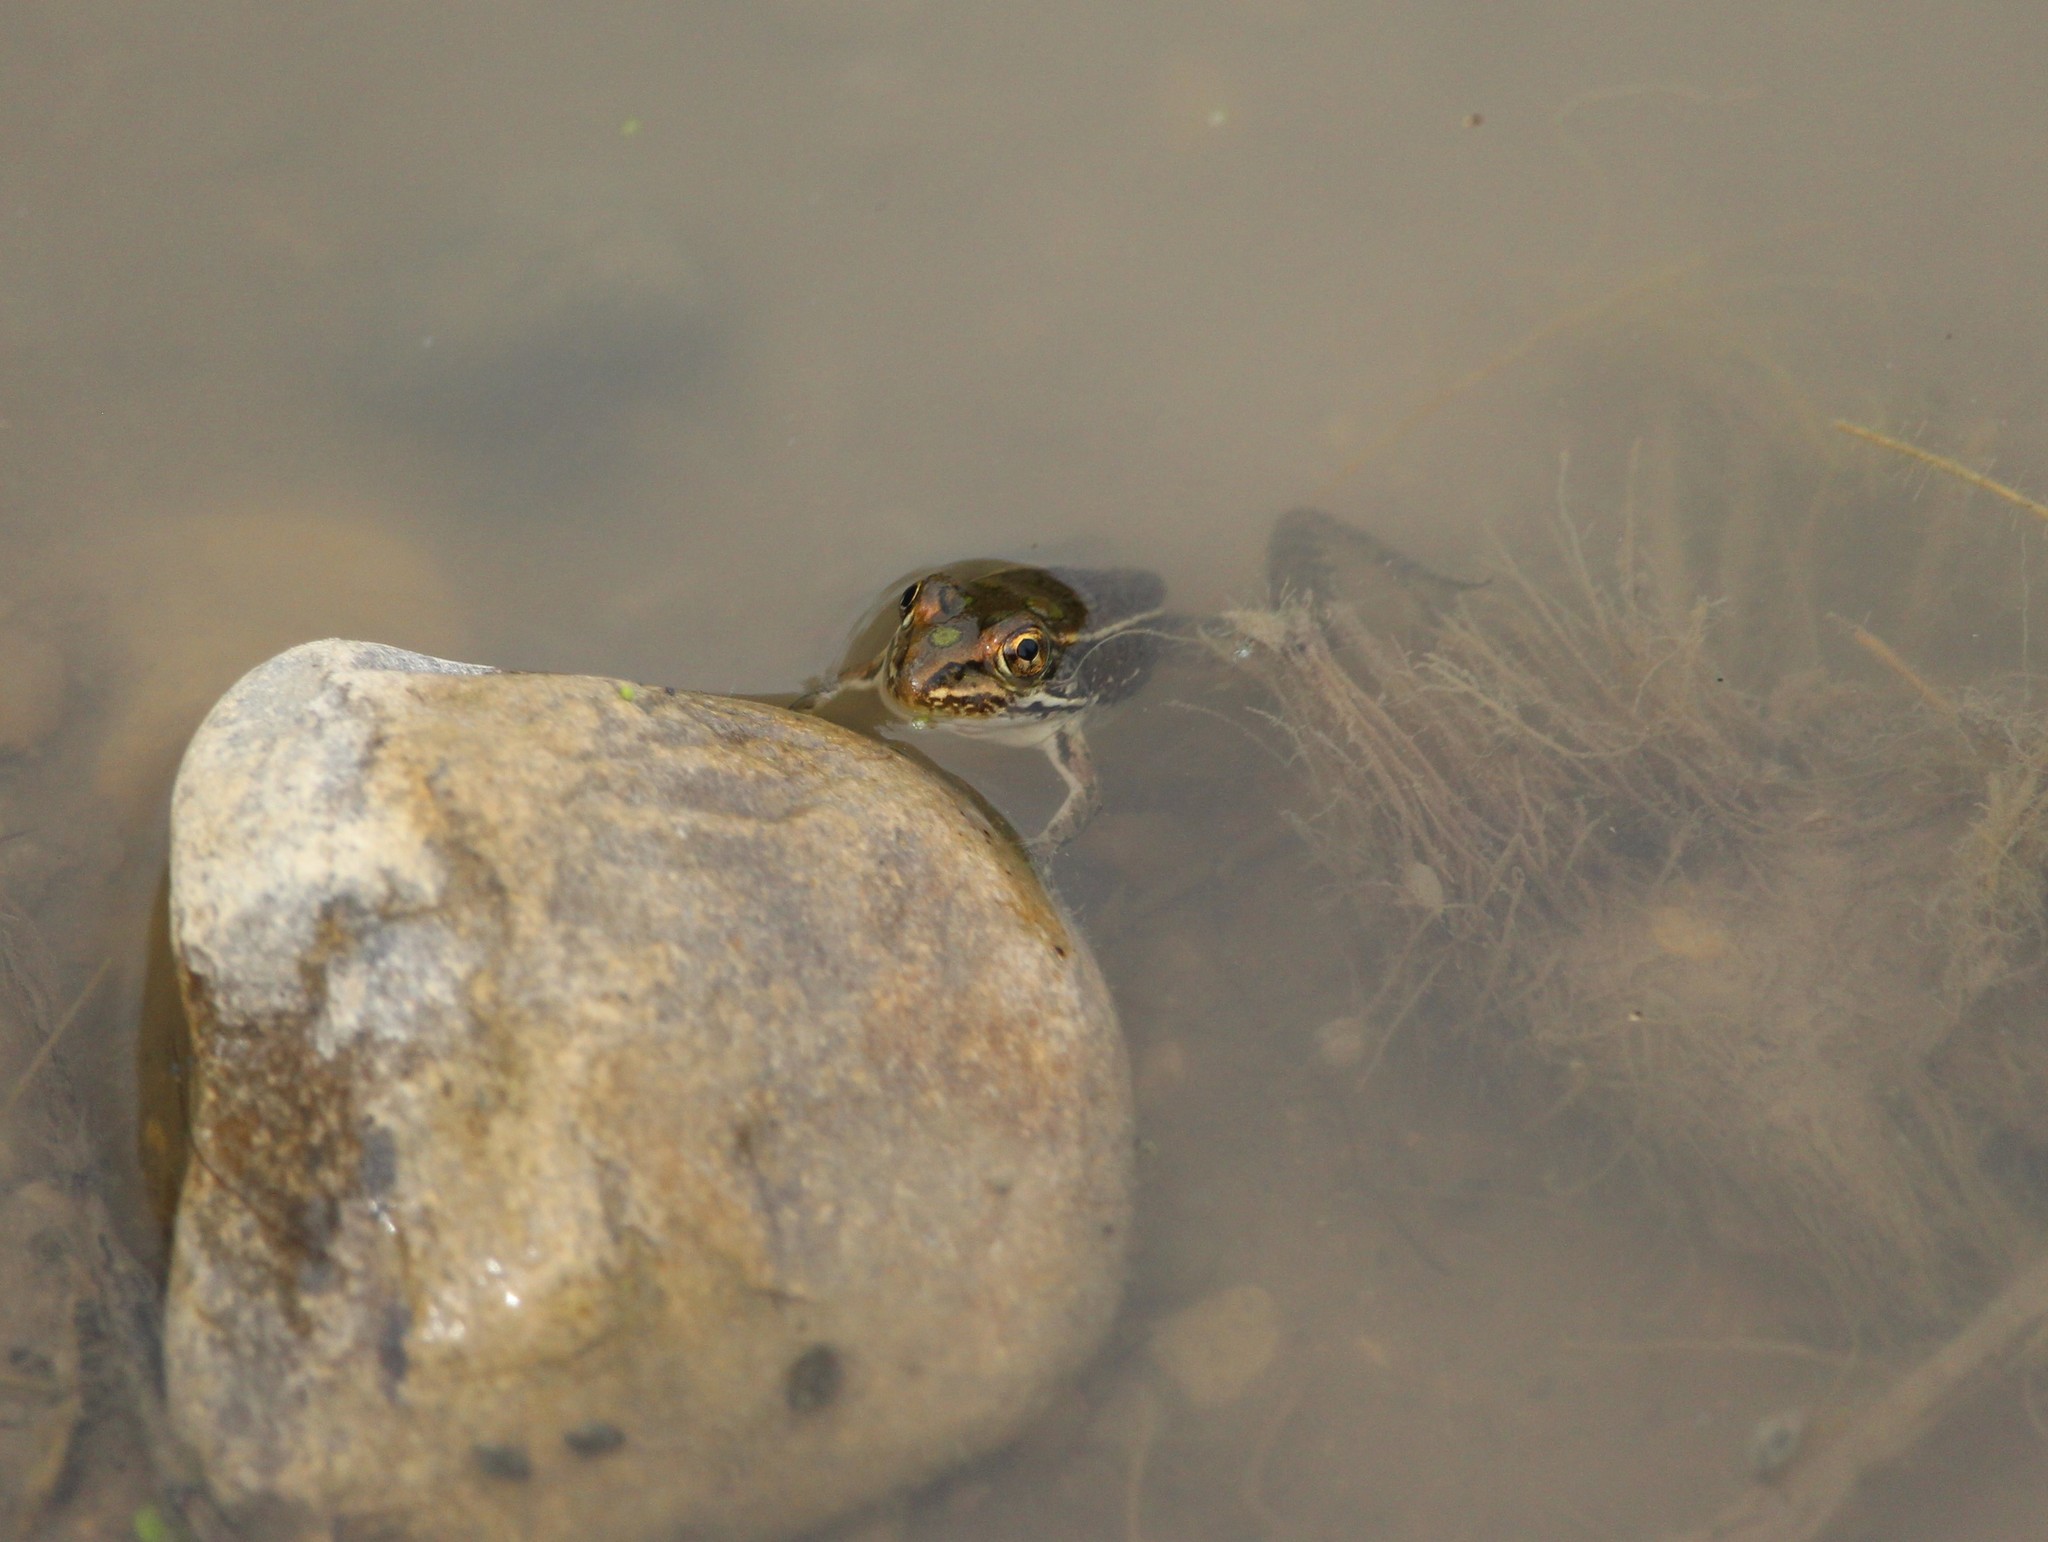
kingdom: Animalia
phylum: Chordata
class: Amphibia
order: Anura
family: Ranidae
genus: Lithobates
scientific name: Lithobates pipiens
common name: Northern leopard frog
